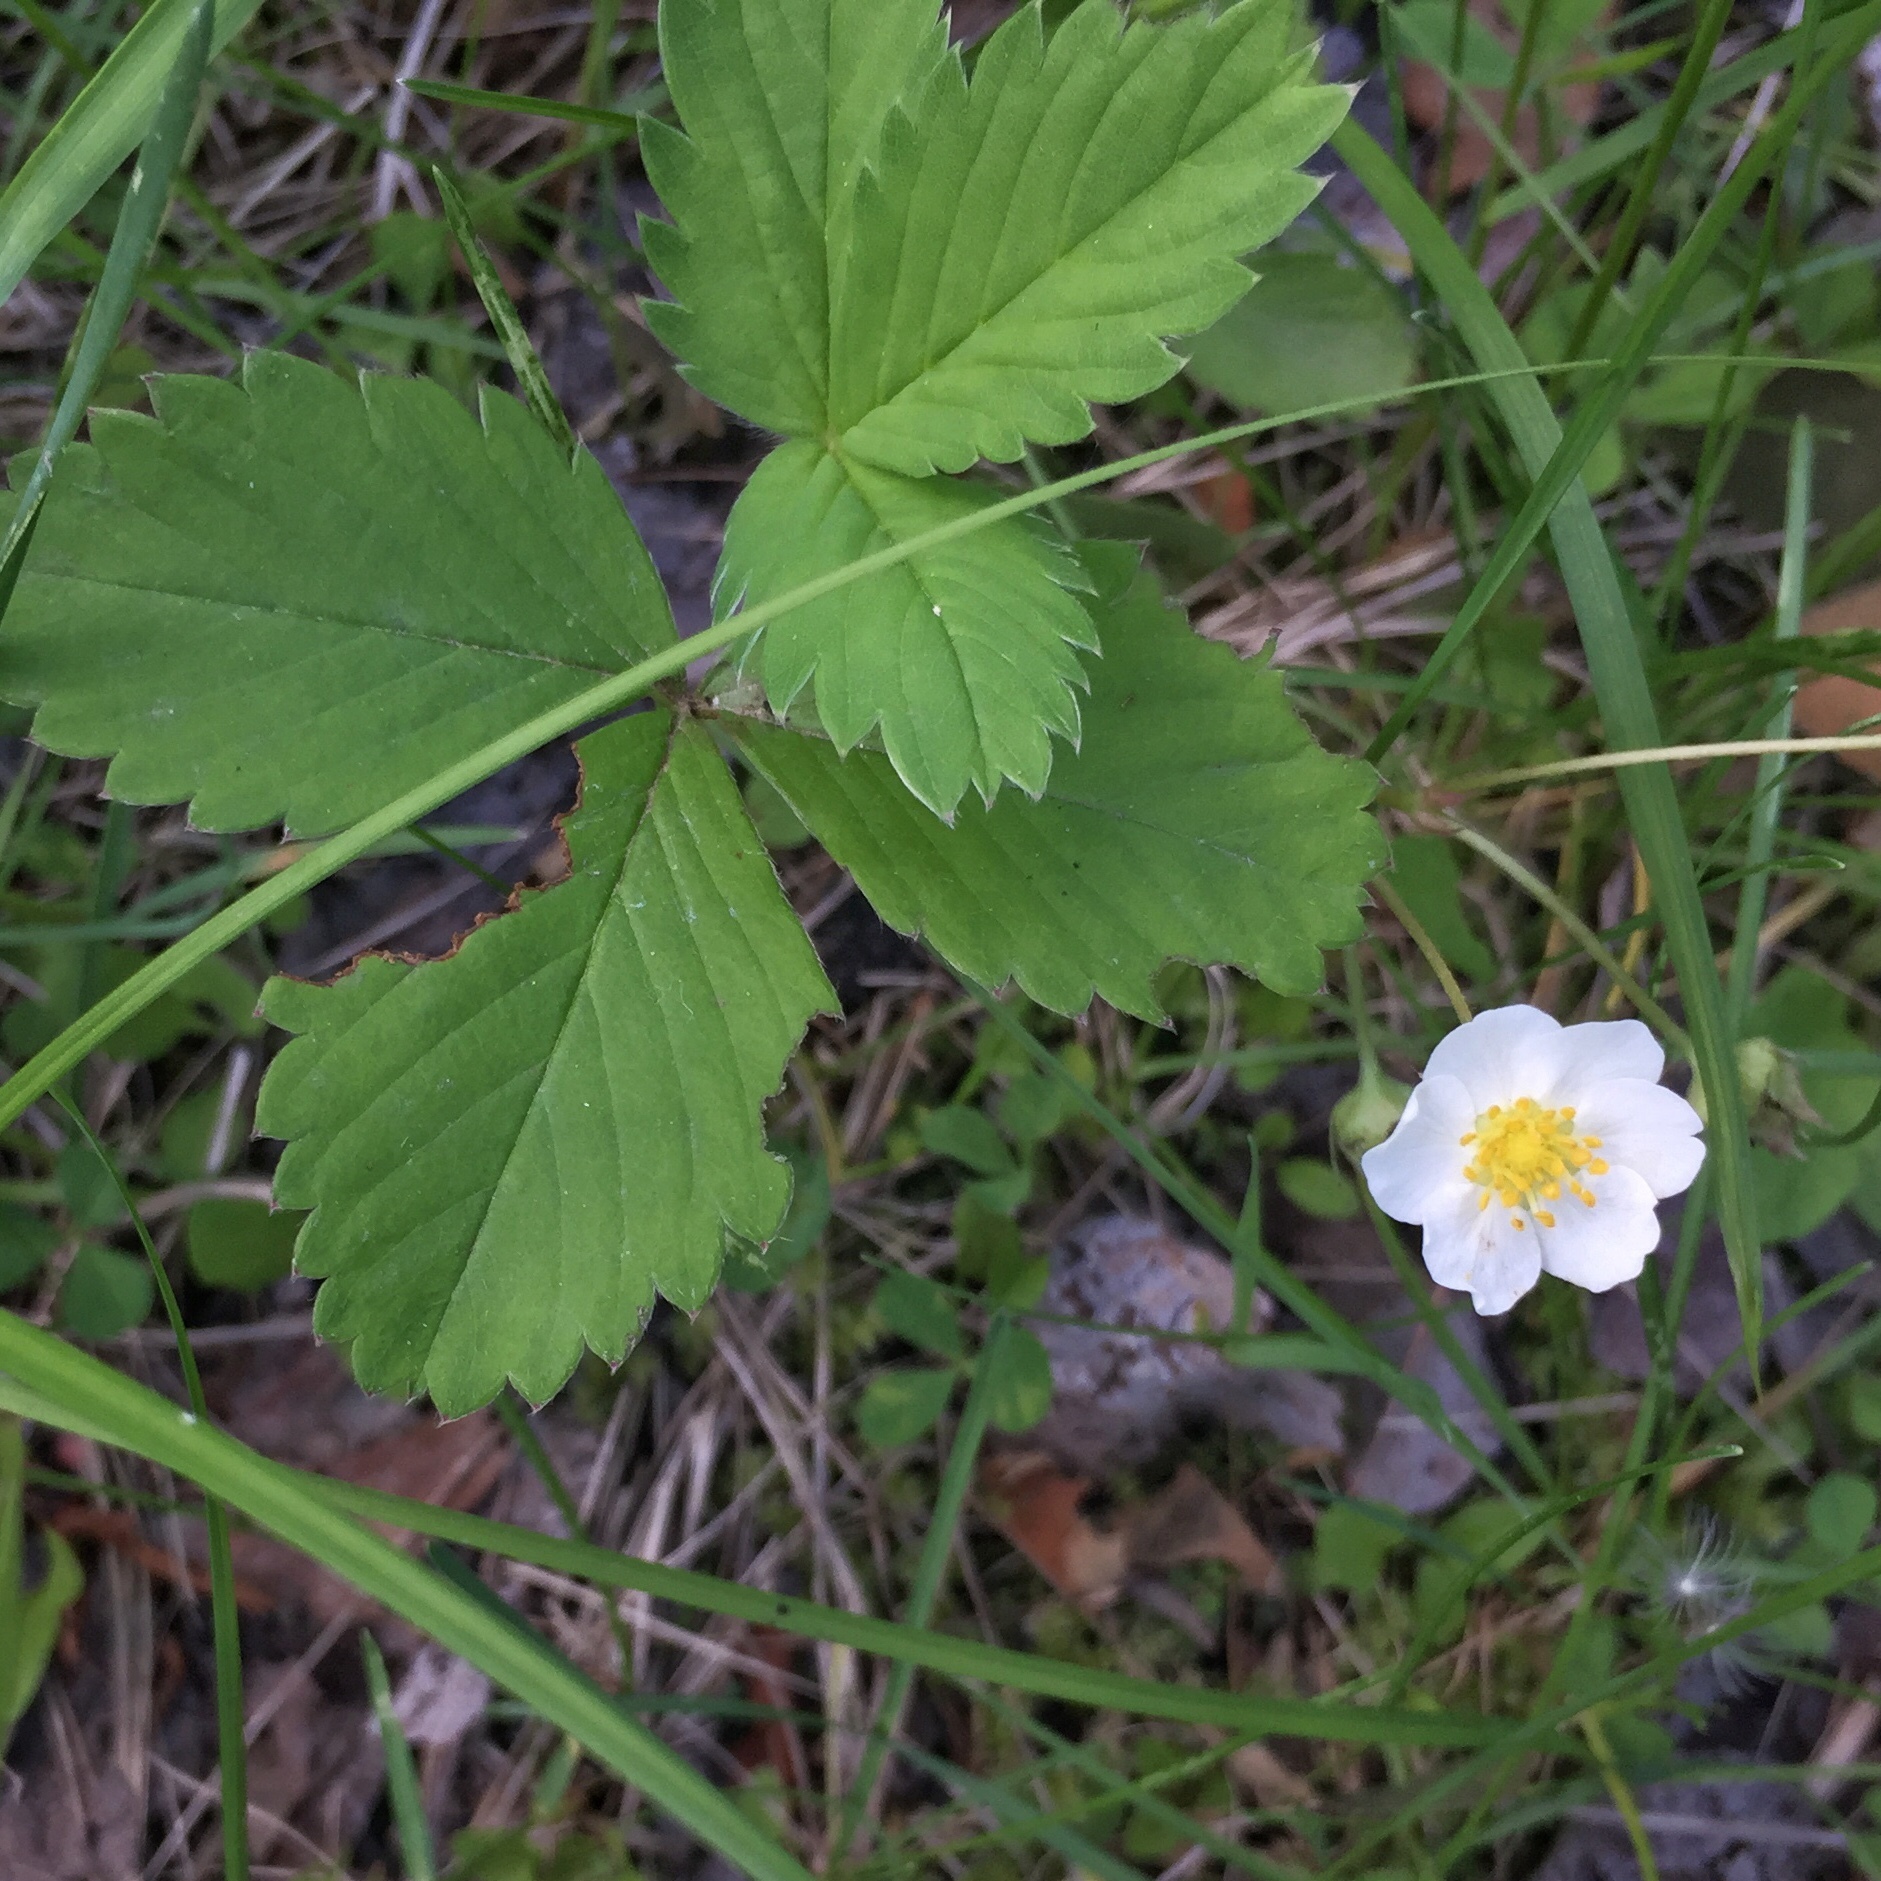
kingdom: Plantae
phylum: Tracheophyta
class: Magnoliopsida
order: Rosales
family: Rosaceae
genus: Fragaria
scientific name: Fragaria virginiana
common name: Thickleaved wild strawberry
